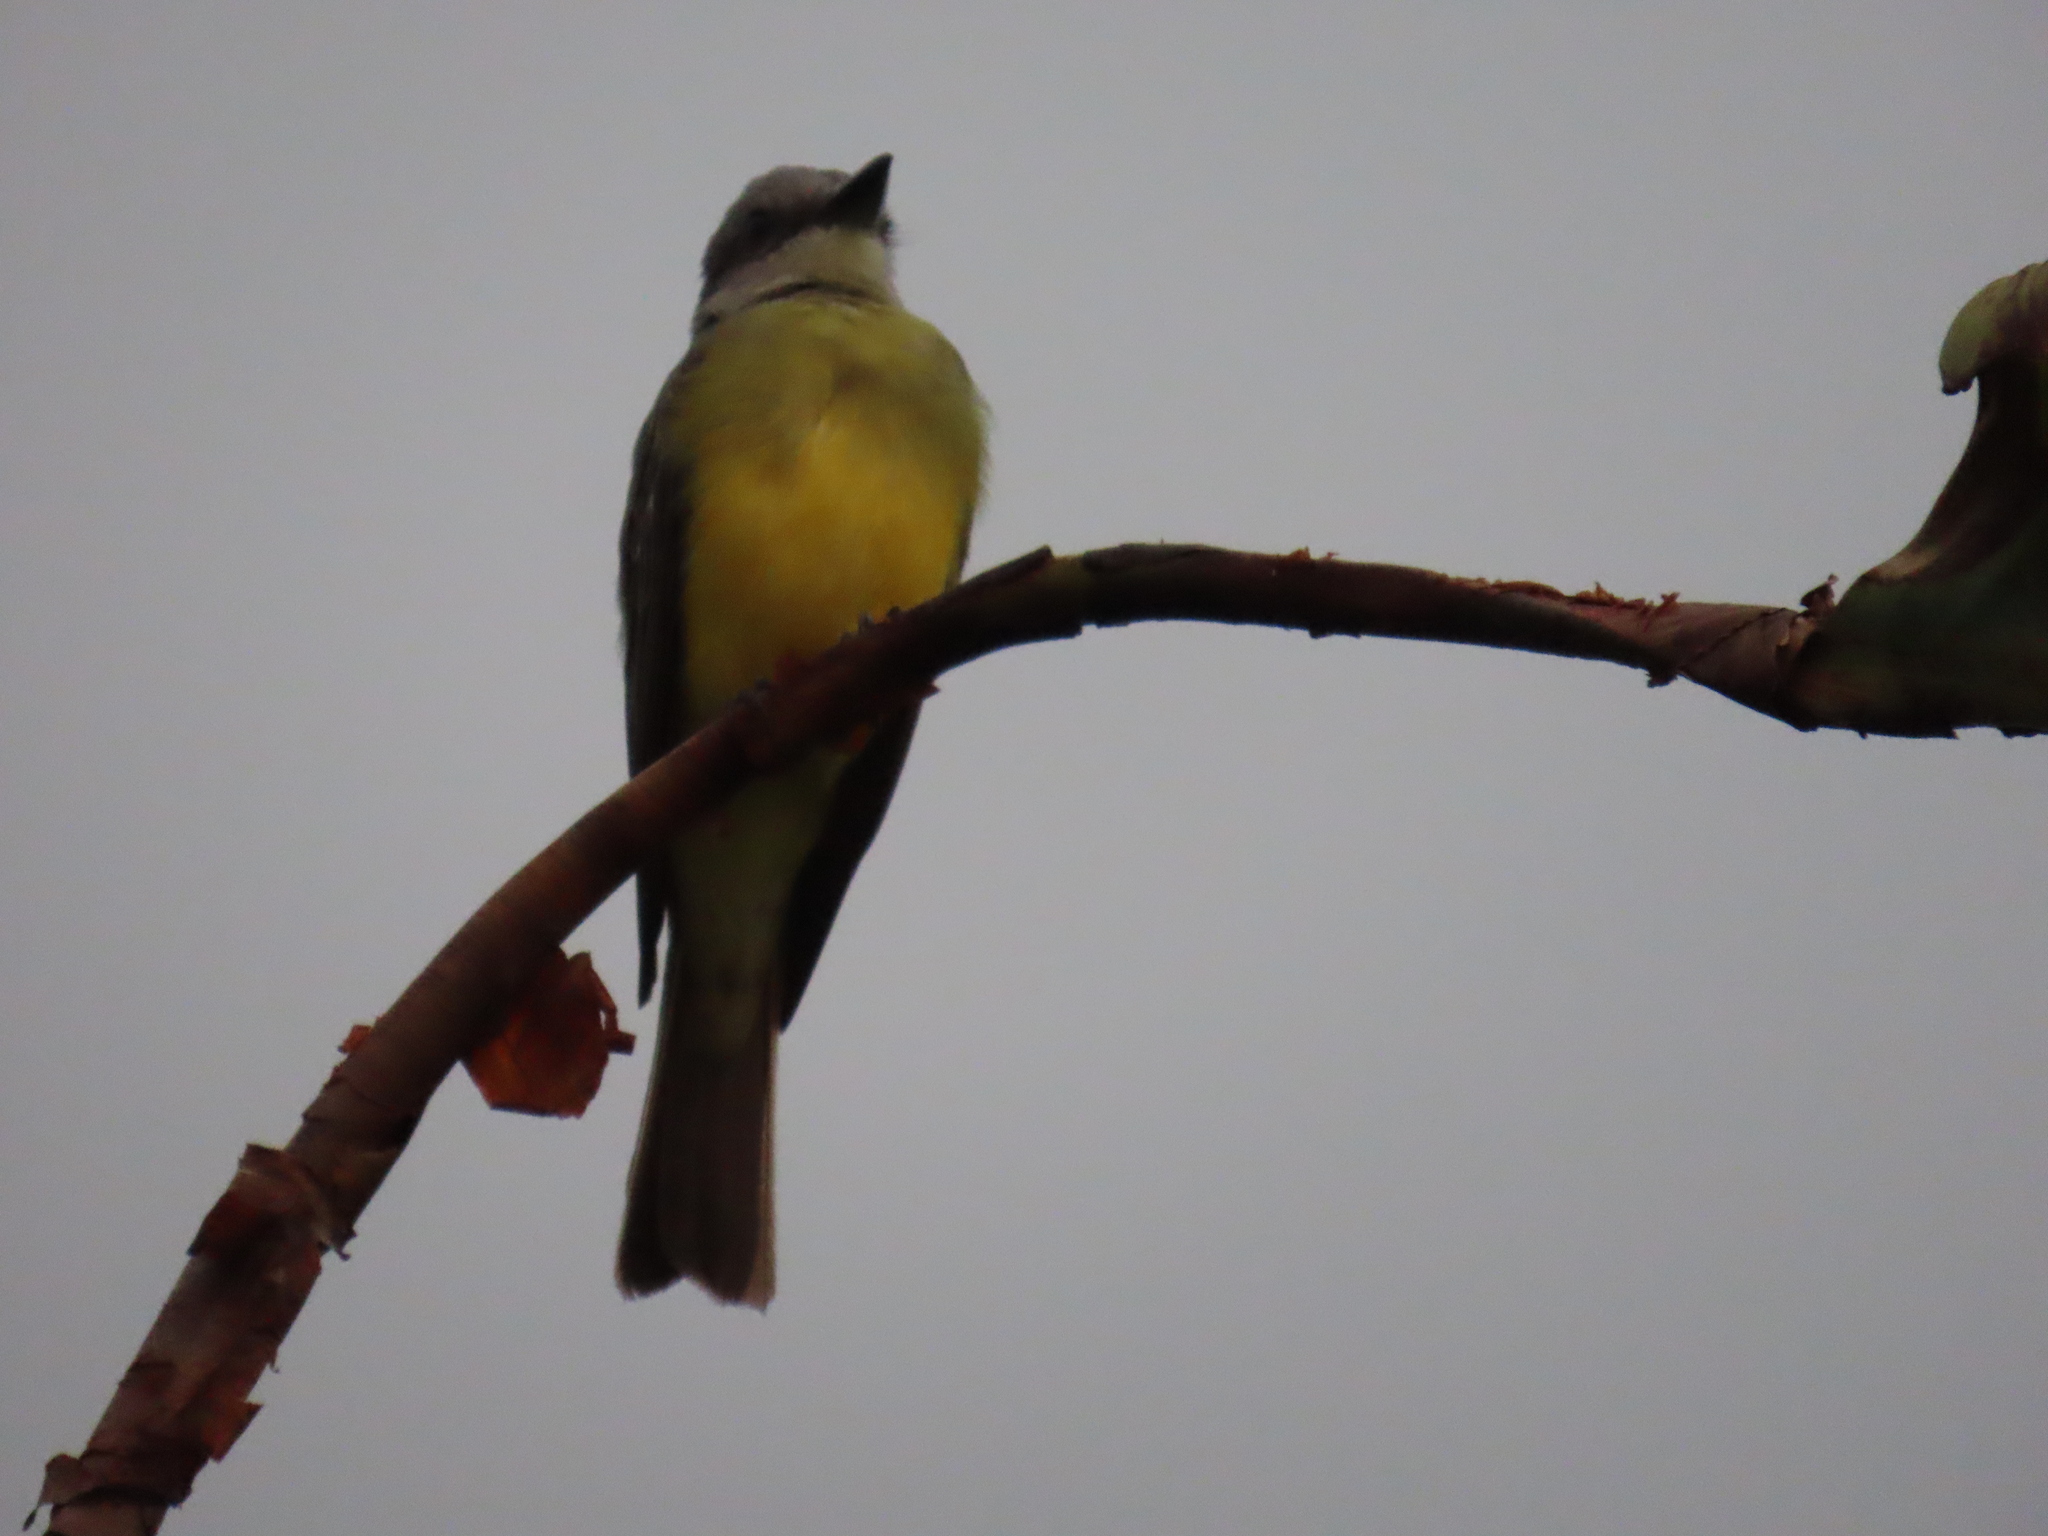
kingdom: Animalia
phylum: Chordata
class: Aves
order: Passeriformes
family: Tyrannidae
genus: Tyrannus
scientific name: Tyrannus melancholicus
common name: Tropical kingbird
